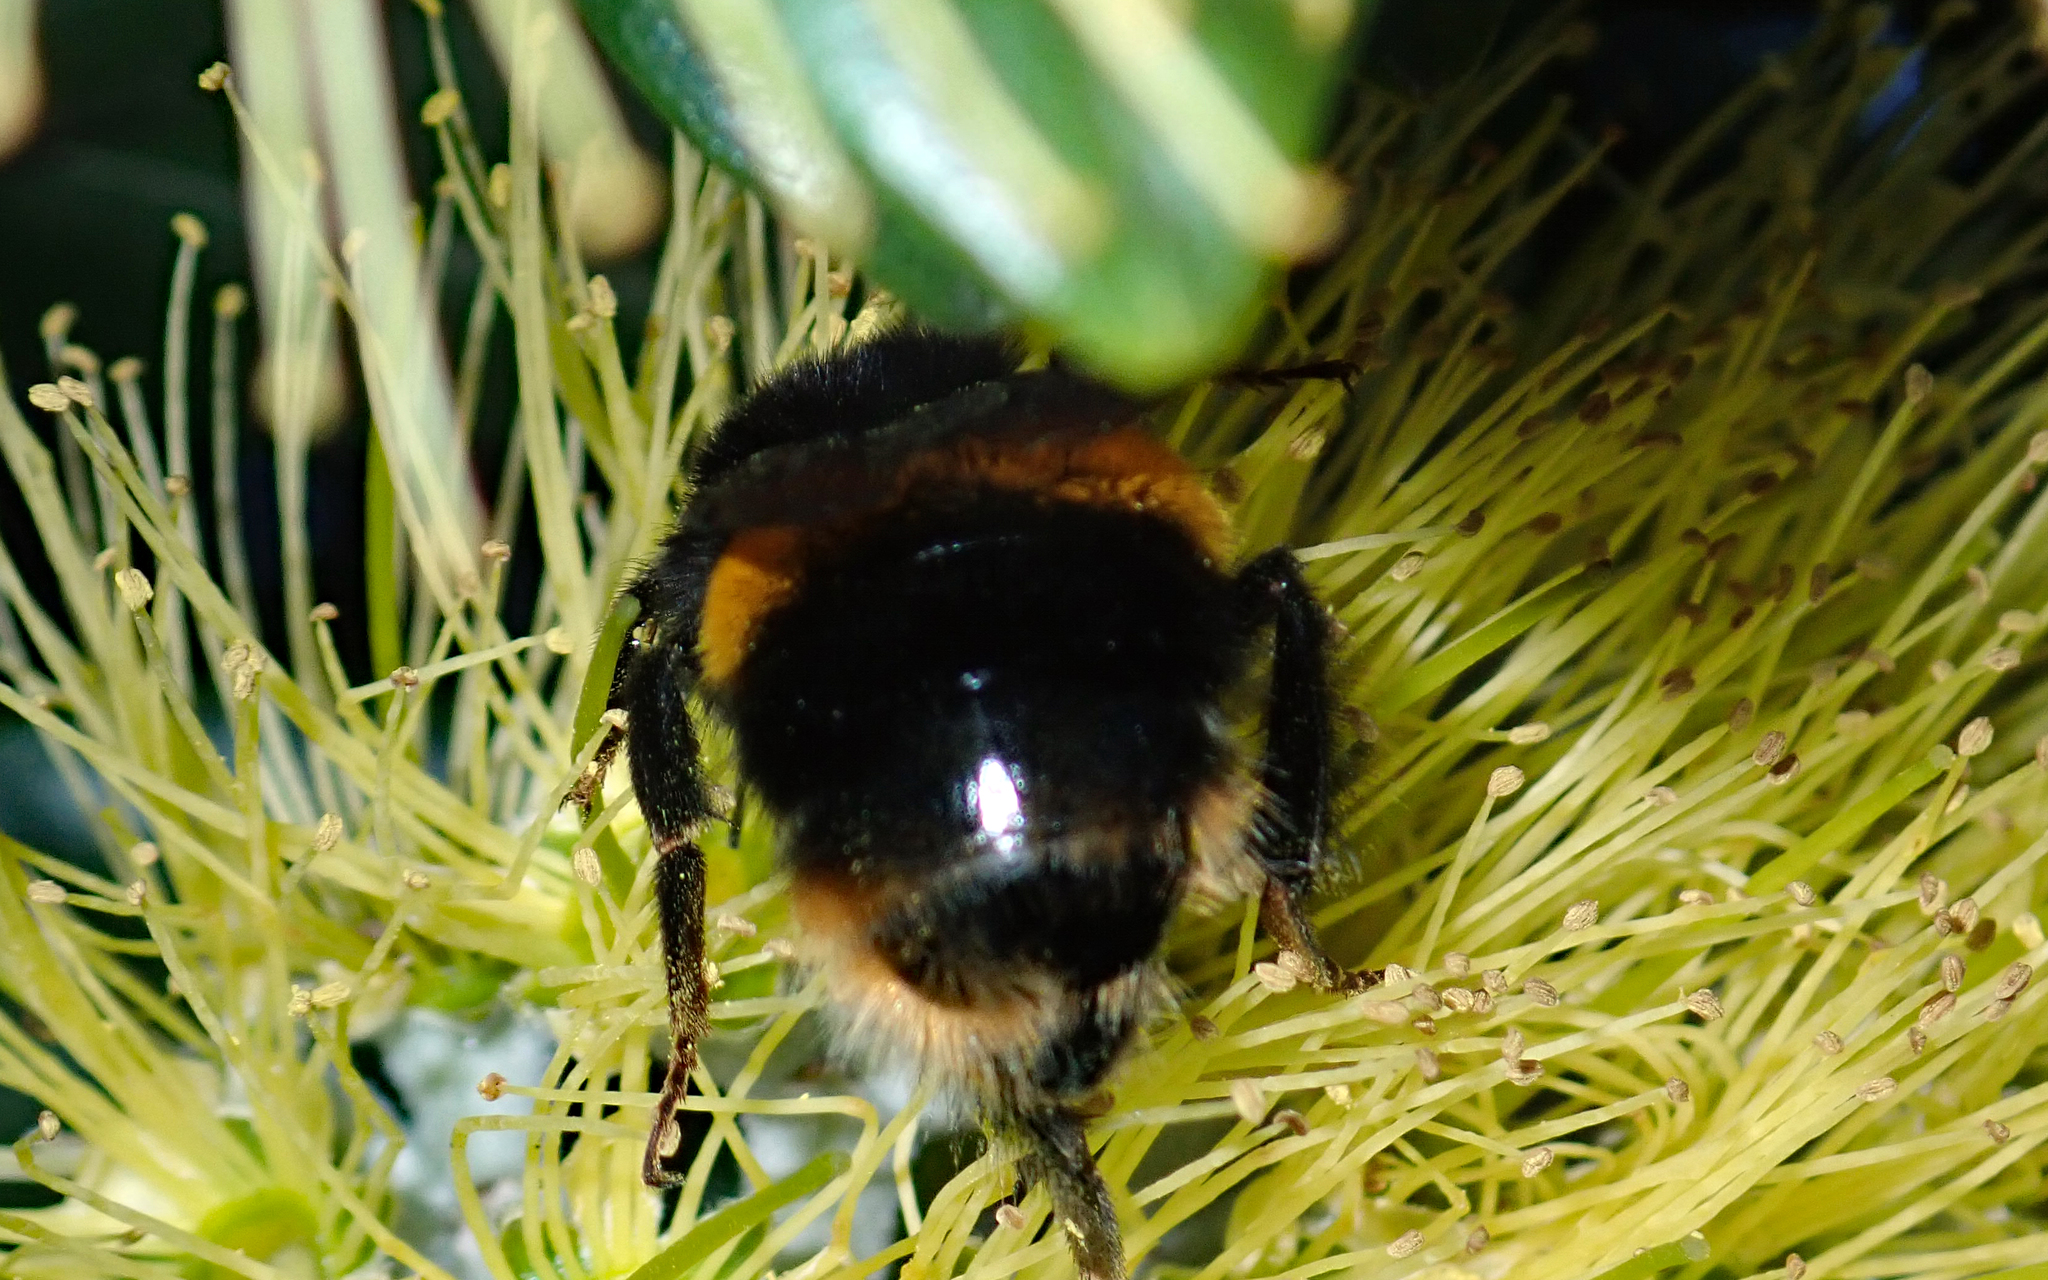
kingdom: Animalia
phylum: Arthropoda
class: Insecta
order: Hymenoptera
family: Apidae
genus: Bombus
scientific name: Bombus terrestris
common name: Buff-tailed bumblebee
